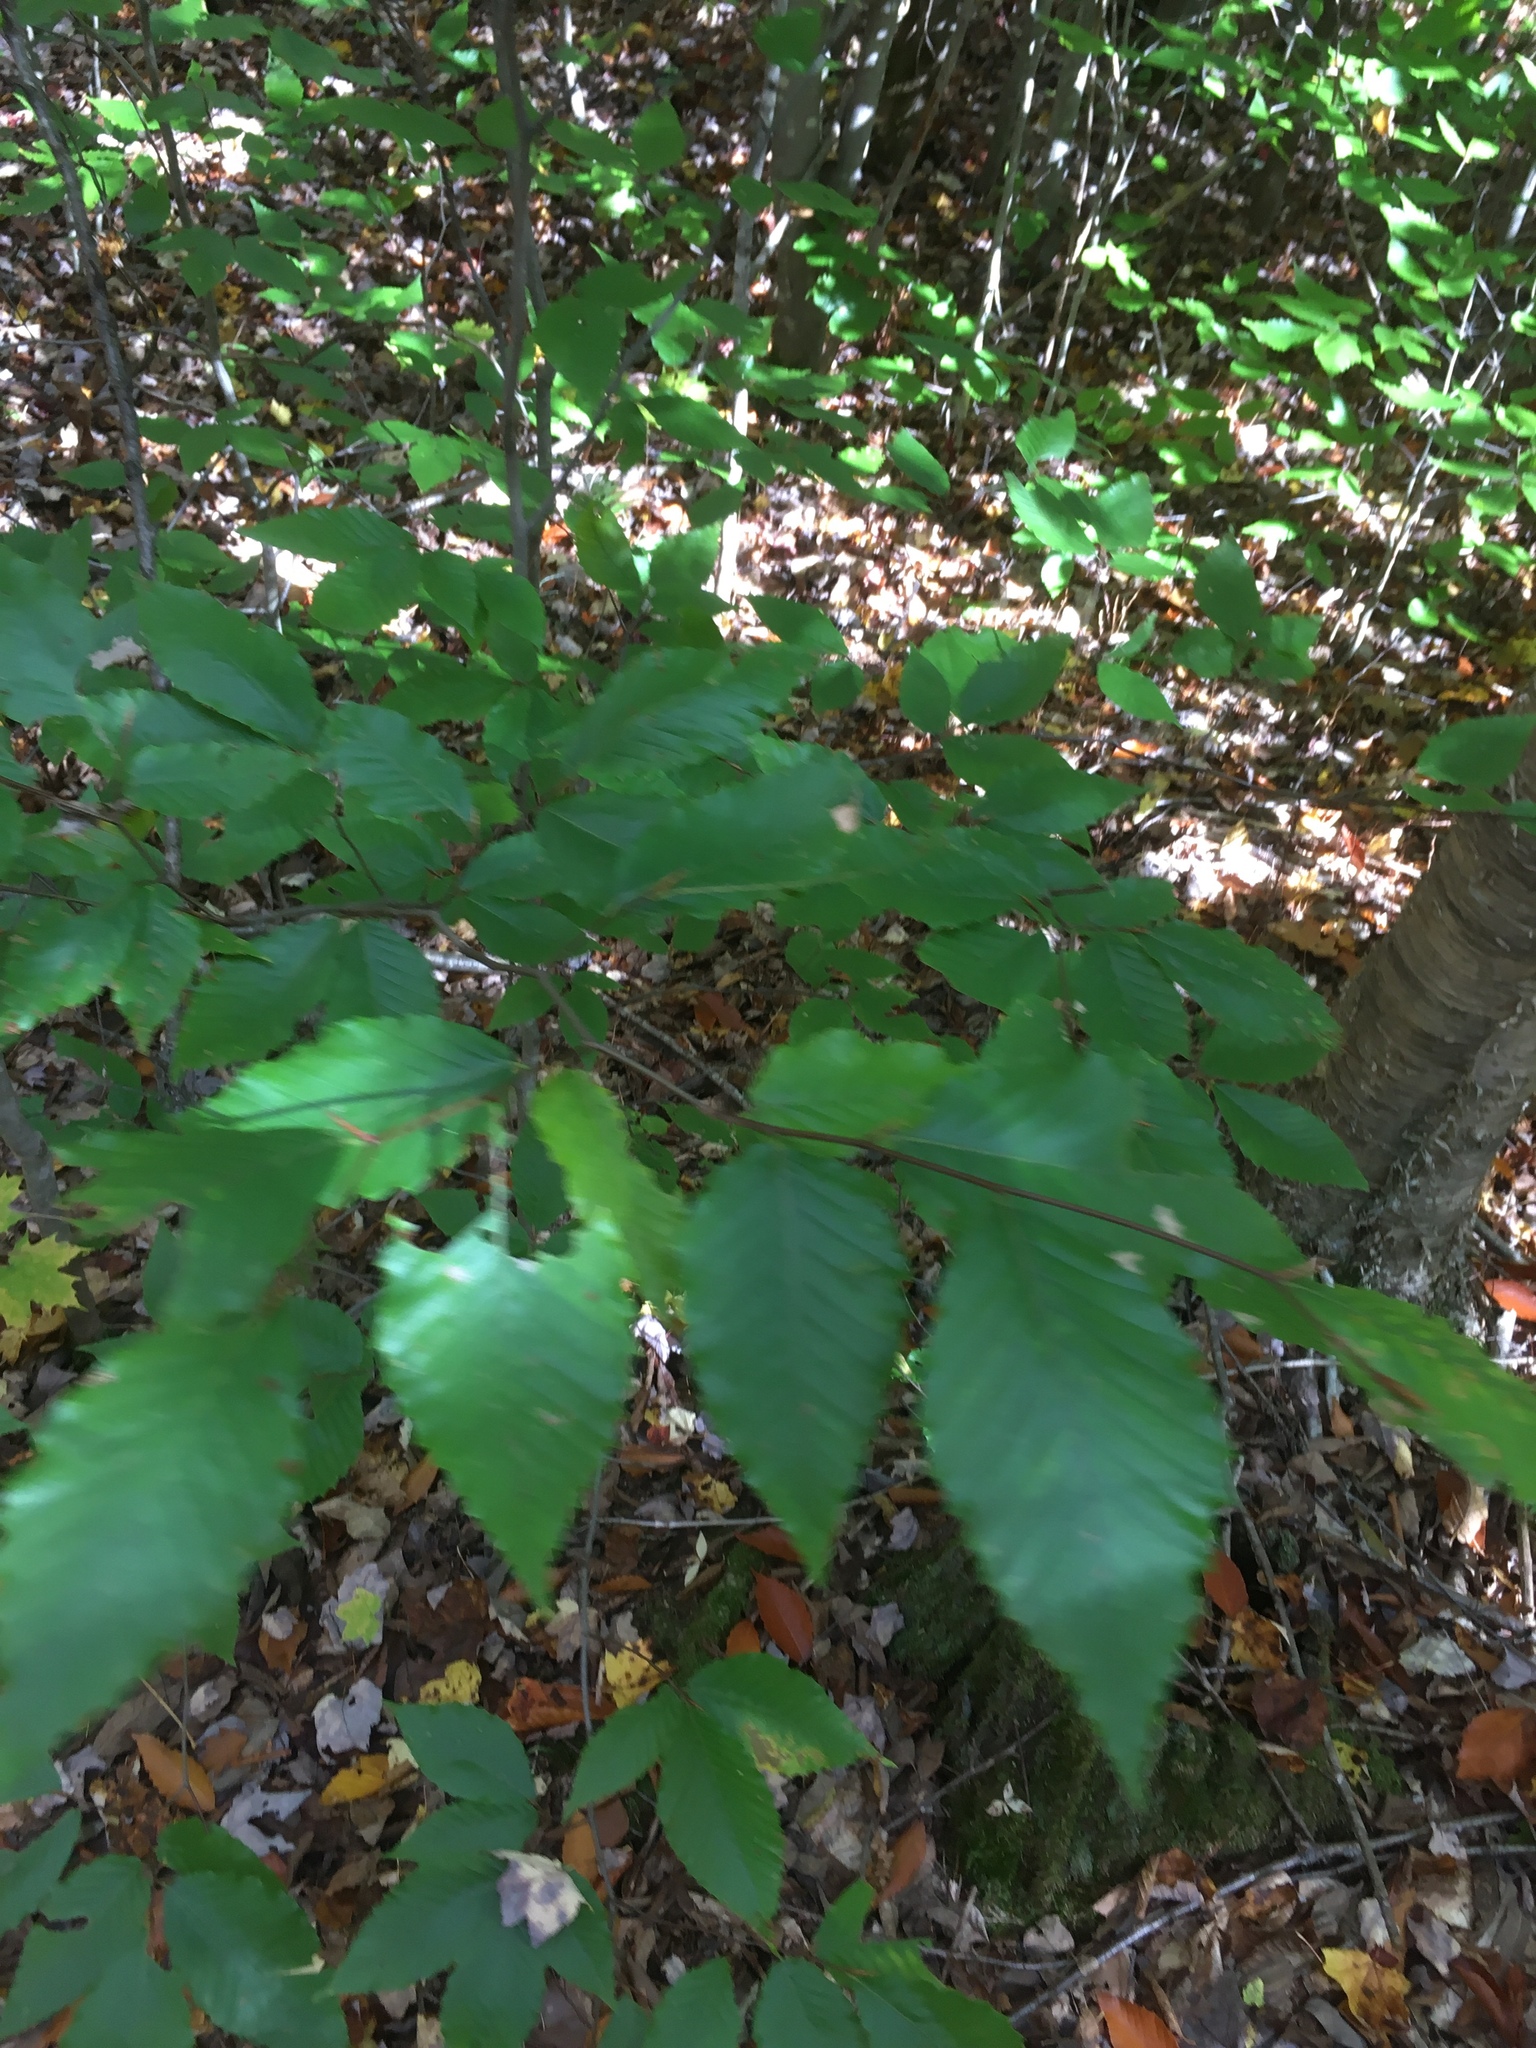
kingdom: Plantae
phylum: Tracheophyta
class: Magnoliopsida
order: Fagales
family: Fagaceae
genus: Fagus
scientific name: Fagus grandifolia
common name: American beech
